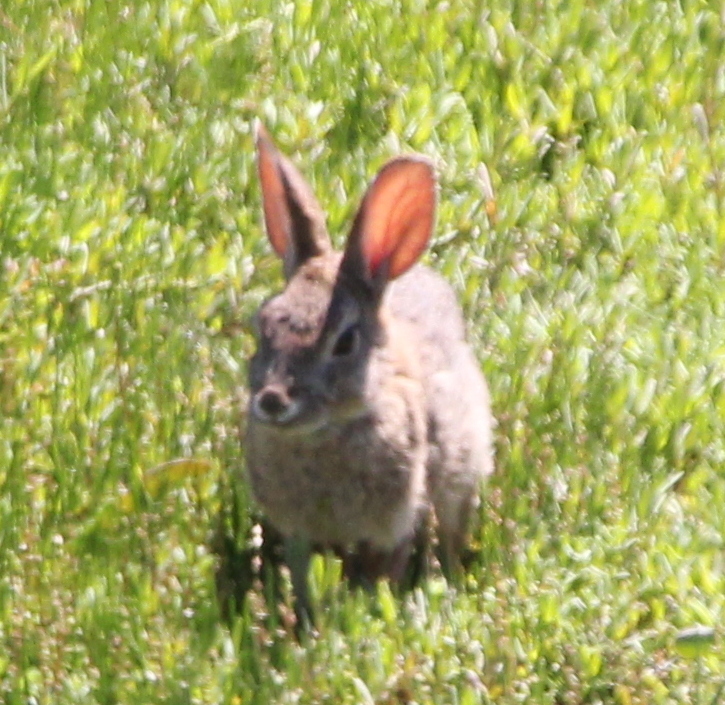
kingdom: Animalia
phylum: Chordata
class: Mammalia
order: Lagomorpha
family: Leporidae
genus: Sylvilagus
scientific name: Sylvilagus audubonii
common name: Desert cottontail
